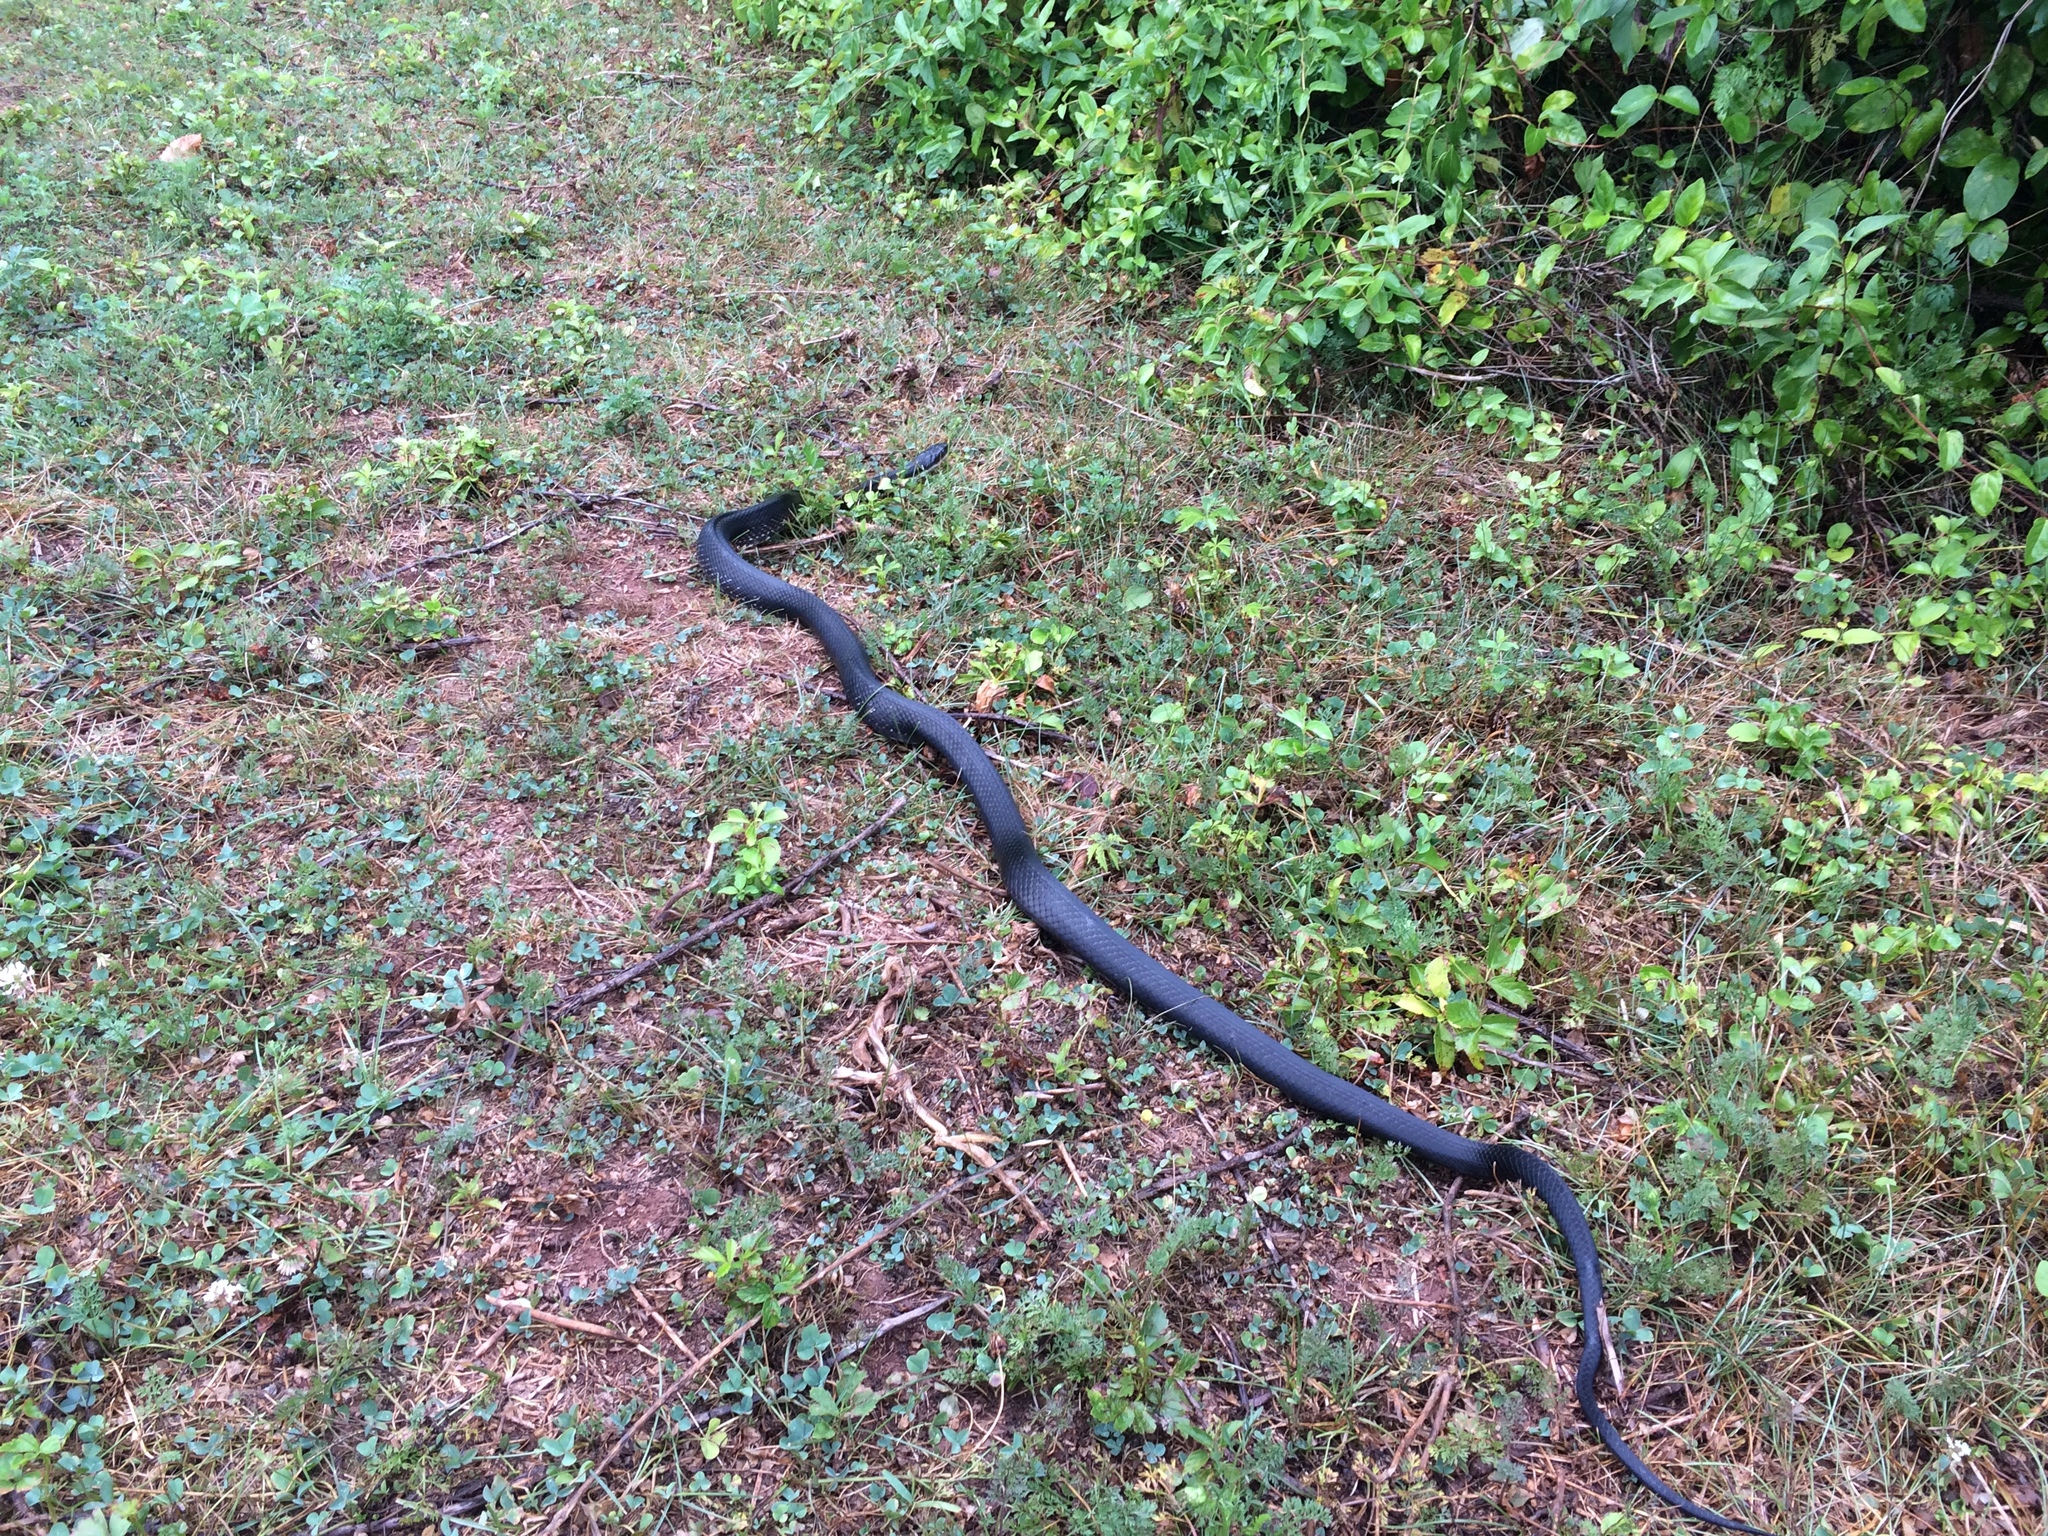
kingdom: Animalia
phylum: Chordata
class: Squamata
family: Colubridae
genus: Pantherophis
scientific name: Pantherophis alleghaniensis
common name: Eastern rat snake
